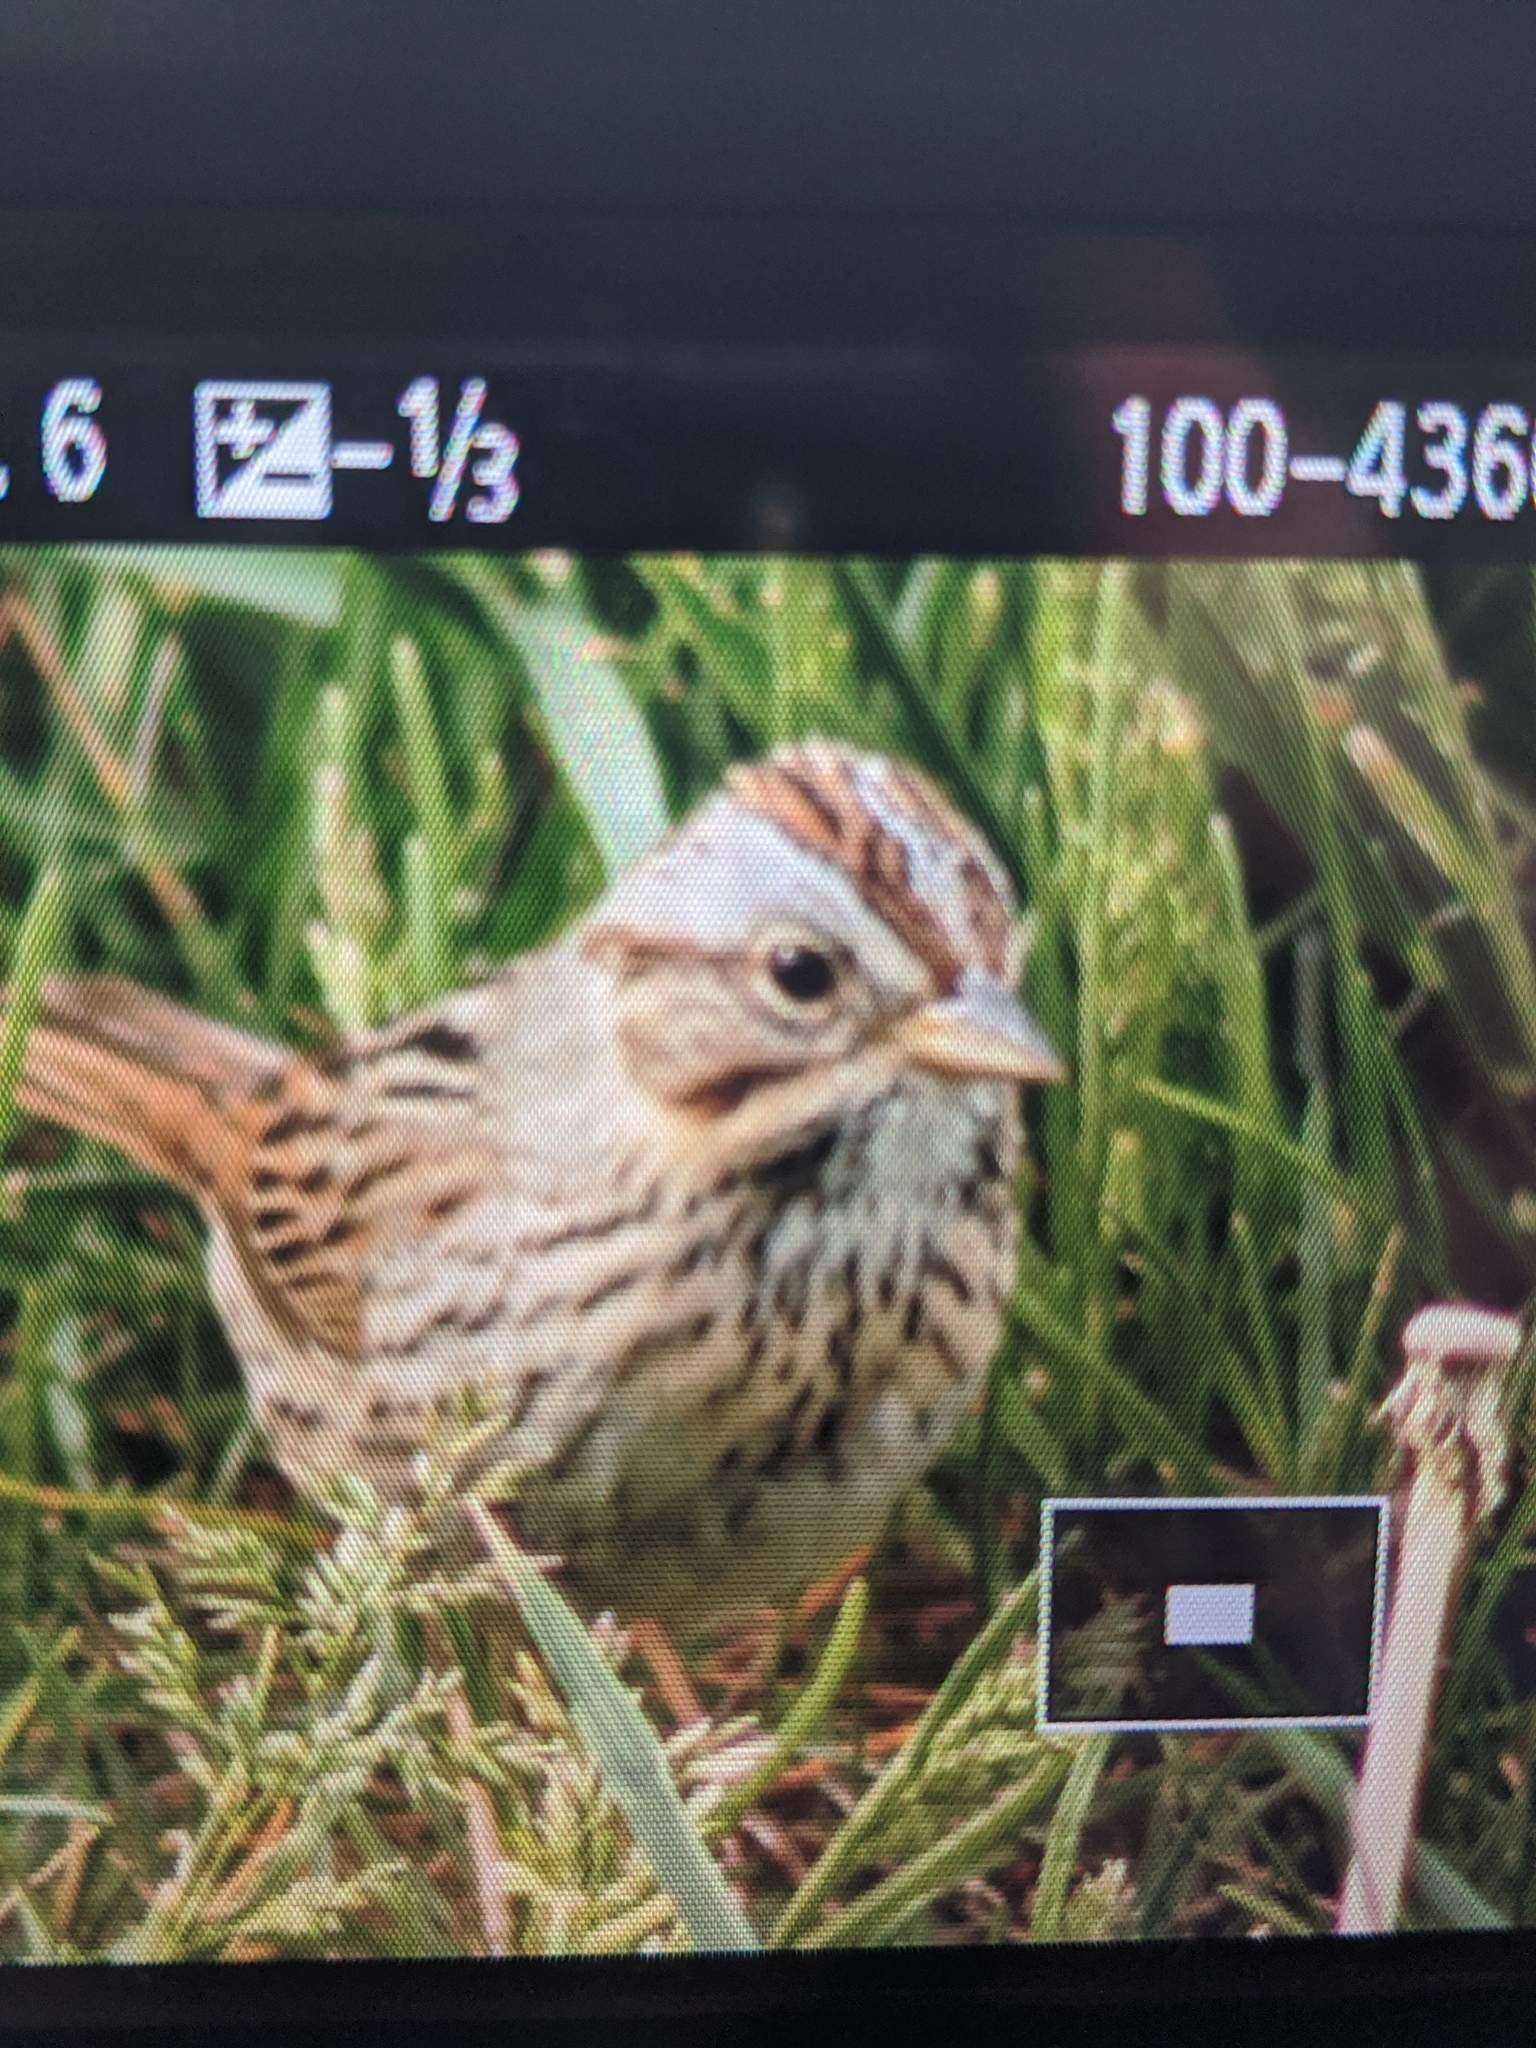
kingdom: Animalia
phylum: Chordata
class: Aves
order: Passeriformes
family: Passerellidae
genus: Melospiza
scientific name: Melospiza lincolnii
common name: Lincoln's sparrow
